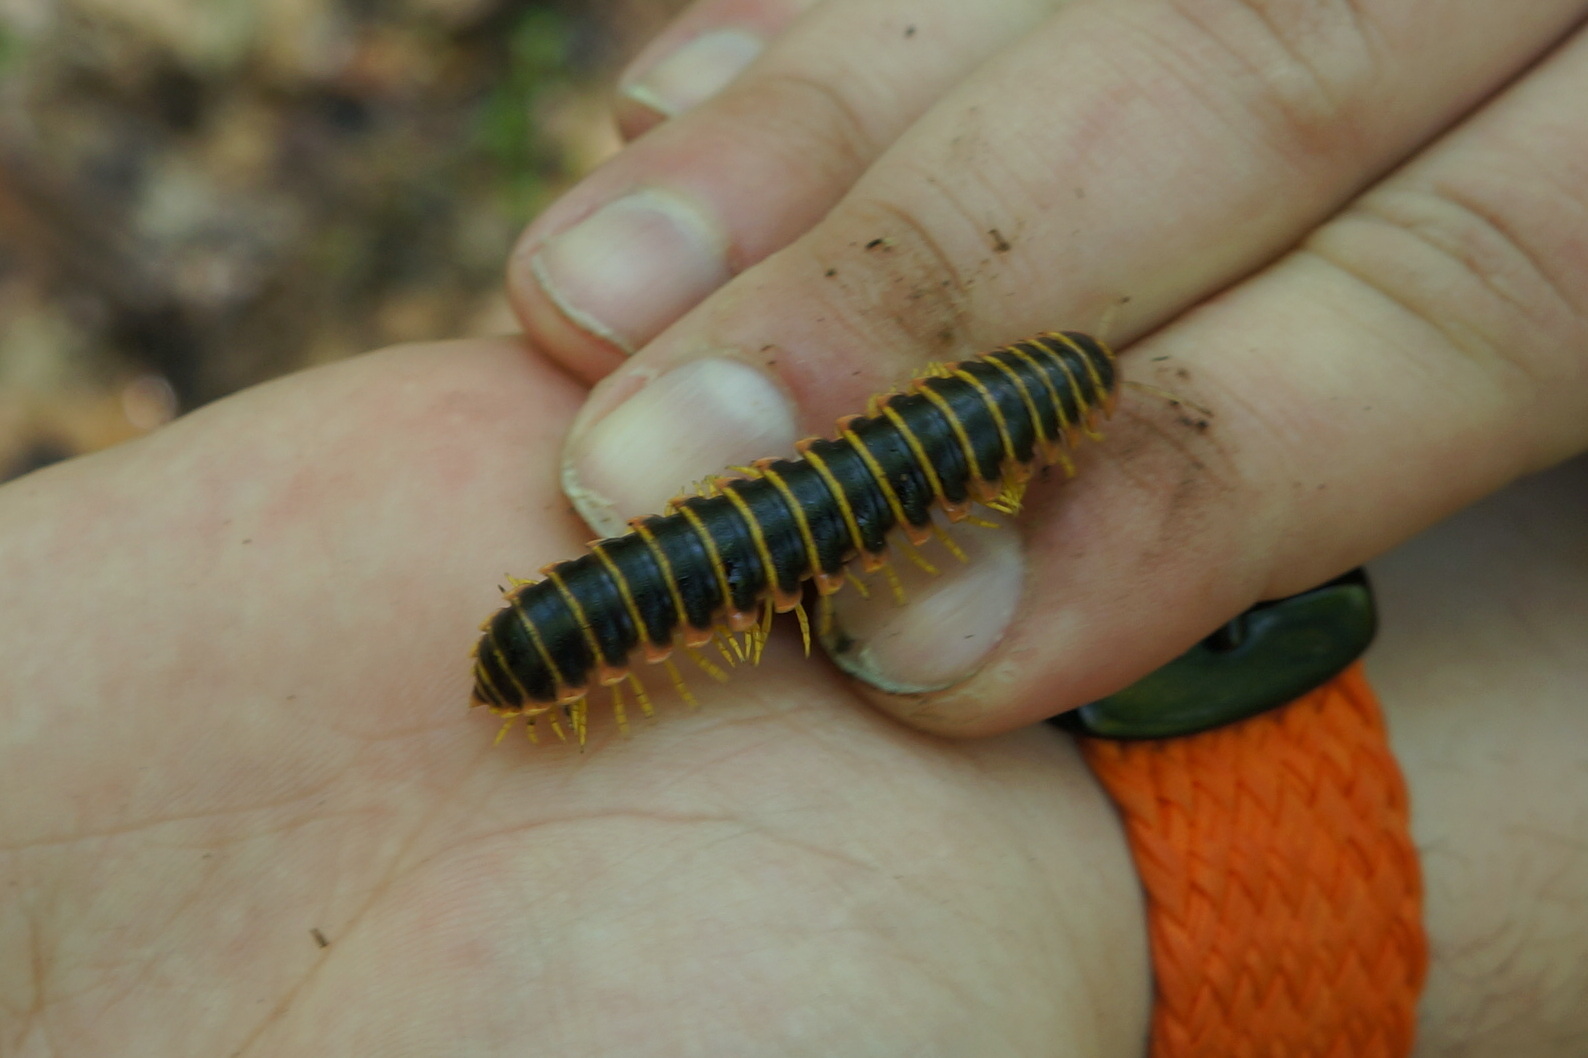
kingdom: Animalia
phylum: Arthropoda
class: Diplopoda
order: Polydesmida
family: Xystodesmidae
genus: Apheloria
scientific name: Apheloria virginiensis
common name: Black-and-gold flat millipede
